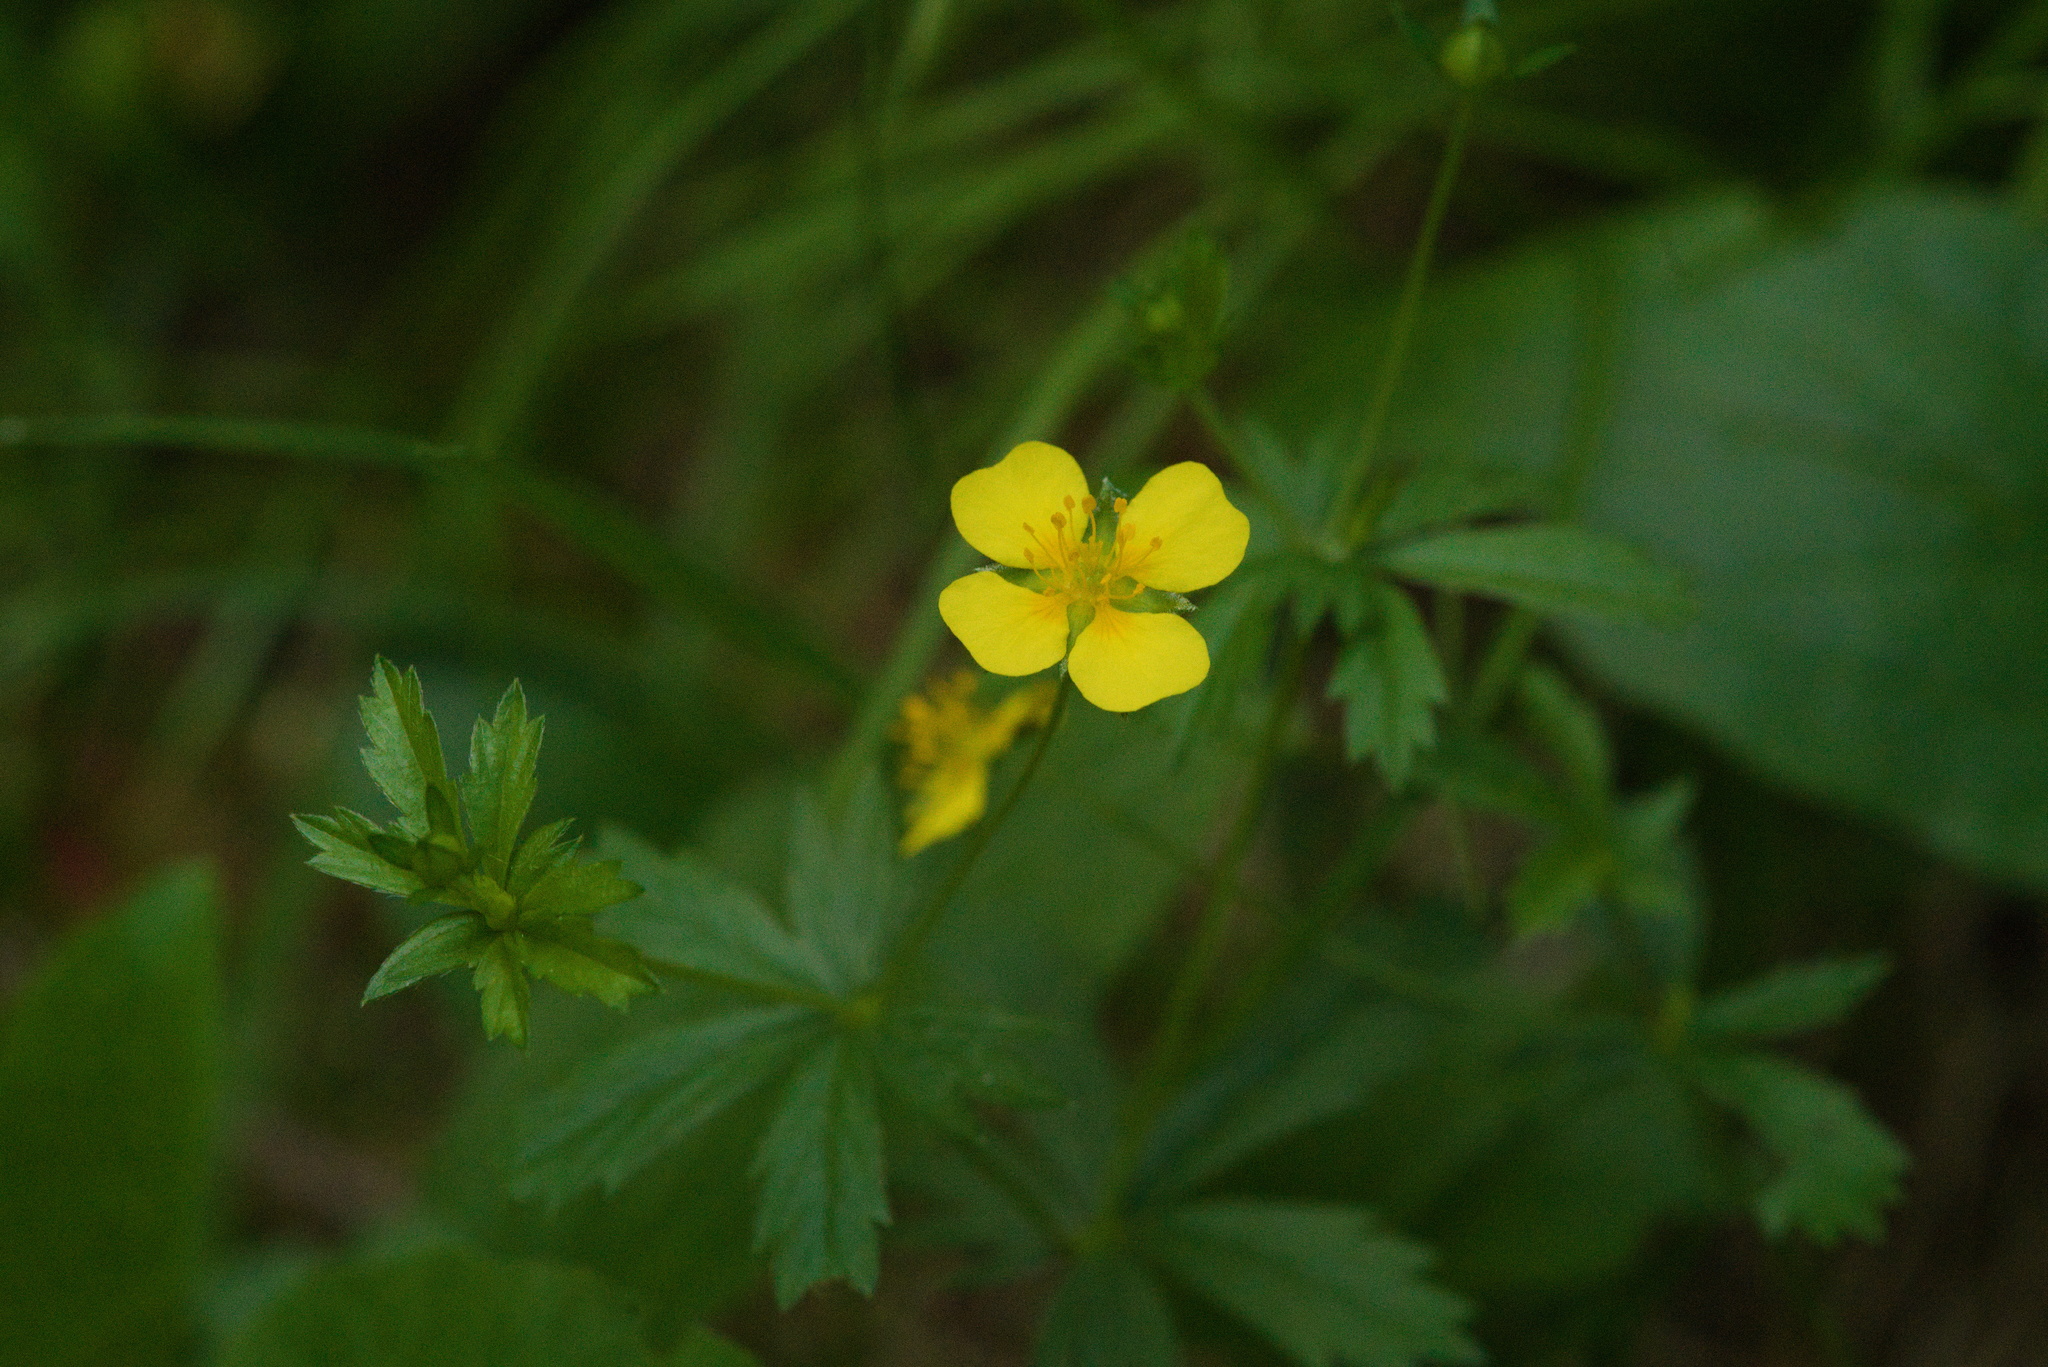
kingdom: Plantae
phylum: Tracheophyta
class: Magnoliopsida
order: Rosales
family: Rosaceae
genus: Potentilla
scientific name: Potentilla erecta
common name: Tormentil
